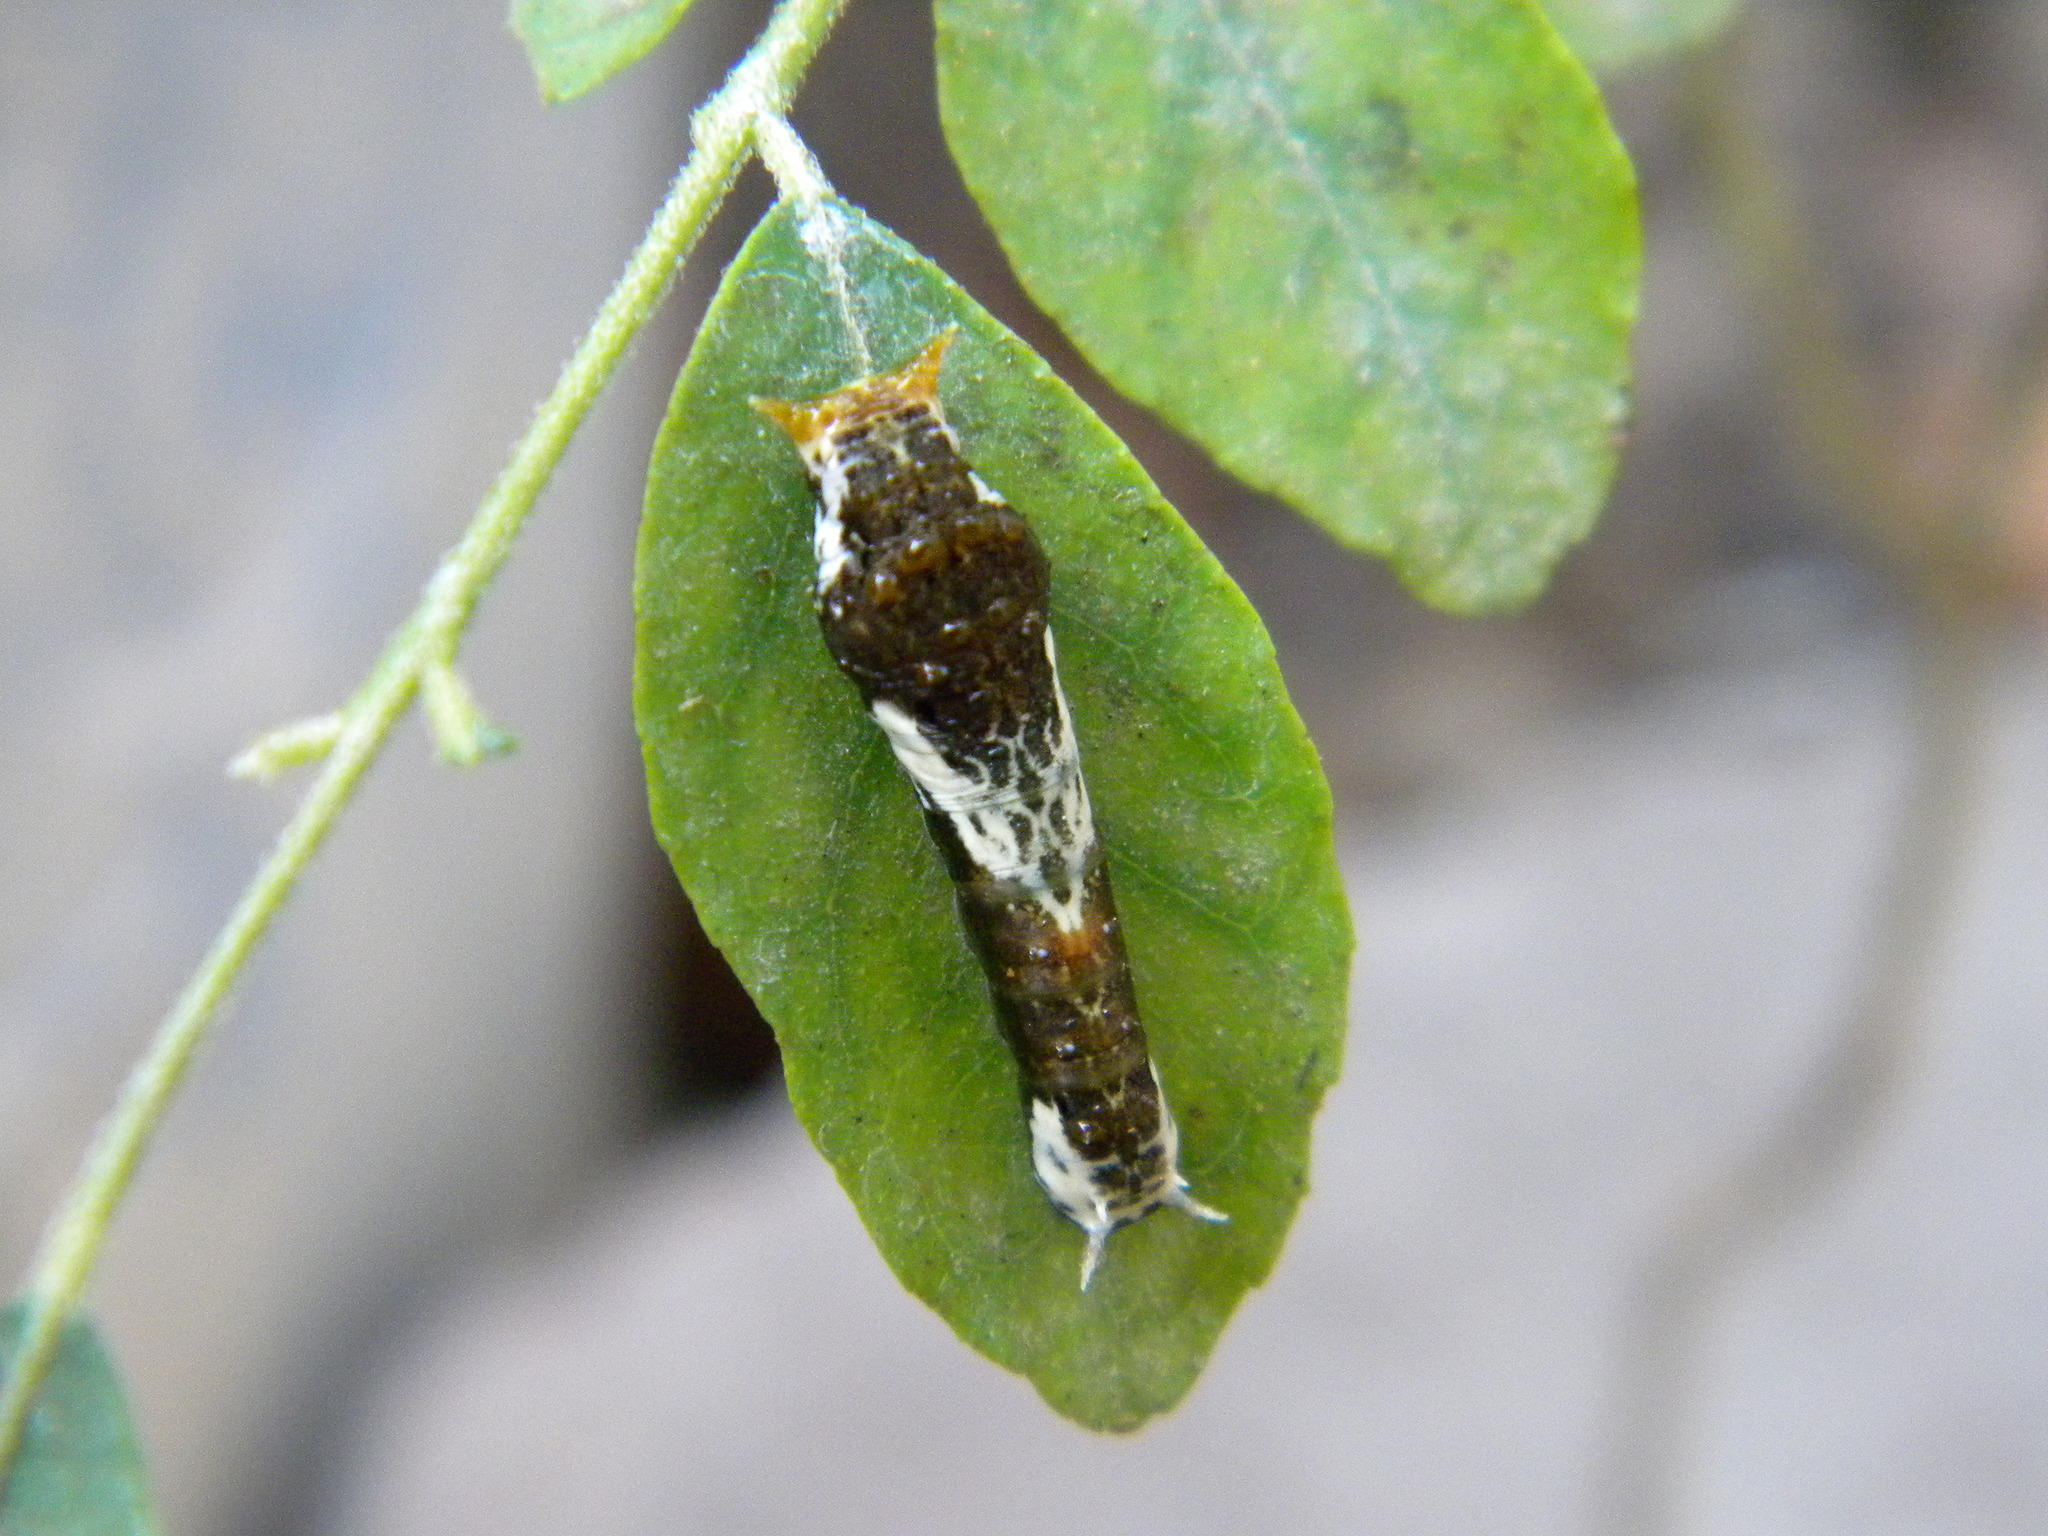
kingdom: Animalia
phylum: Arthropoda
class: Insecta
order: Lepidoptera
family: Papilionidae
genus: Papilio
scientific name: Papilio polytes
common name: Common mormon
